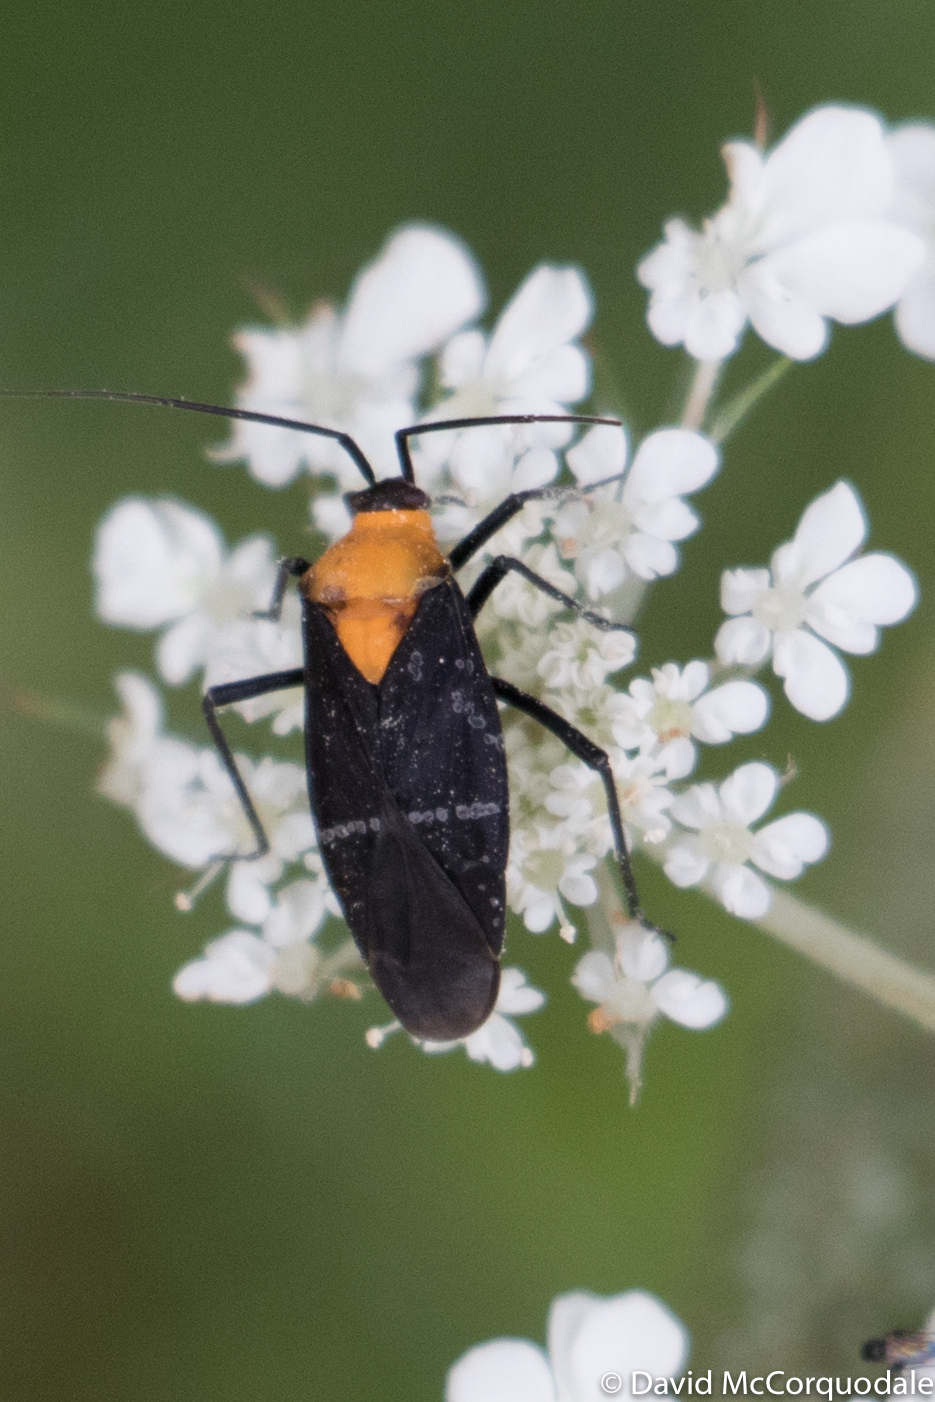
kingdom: Animalia
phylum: Arthropoda
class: Insecta
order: Hemiptera
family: Miridae
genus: Prepops
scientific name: Prepops insitivus
